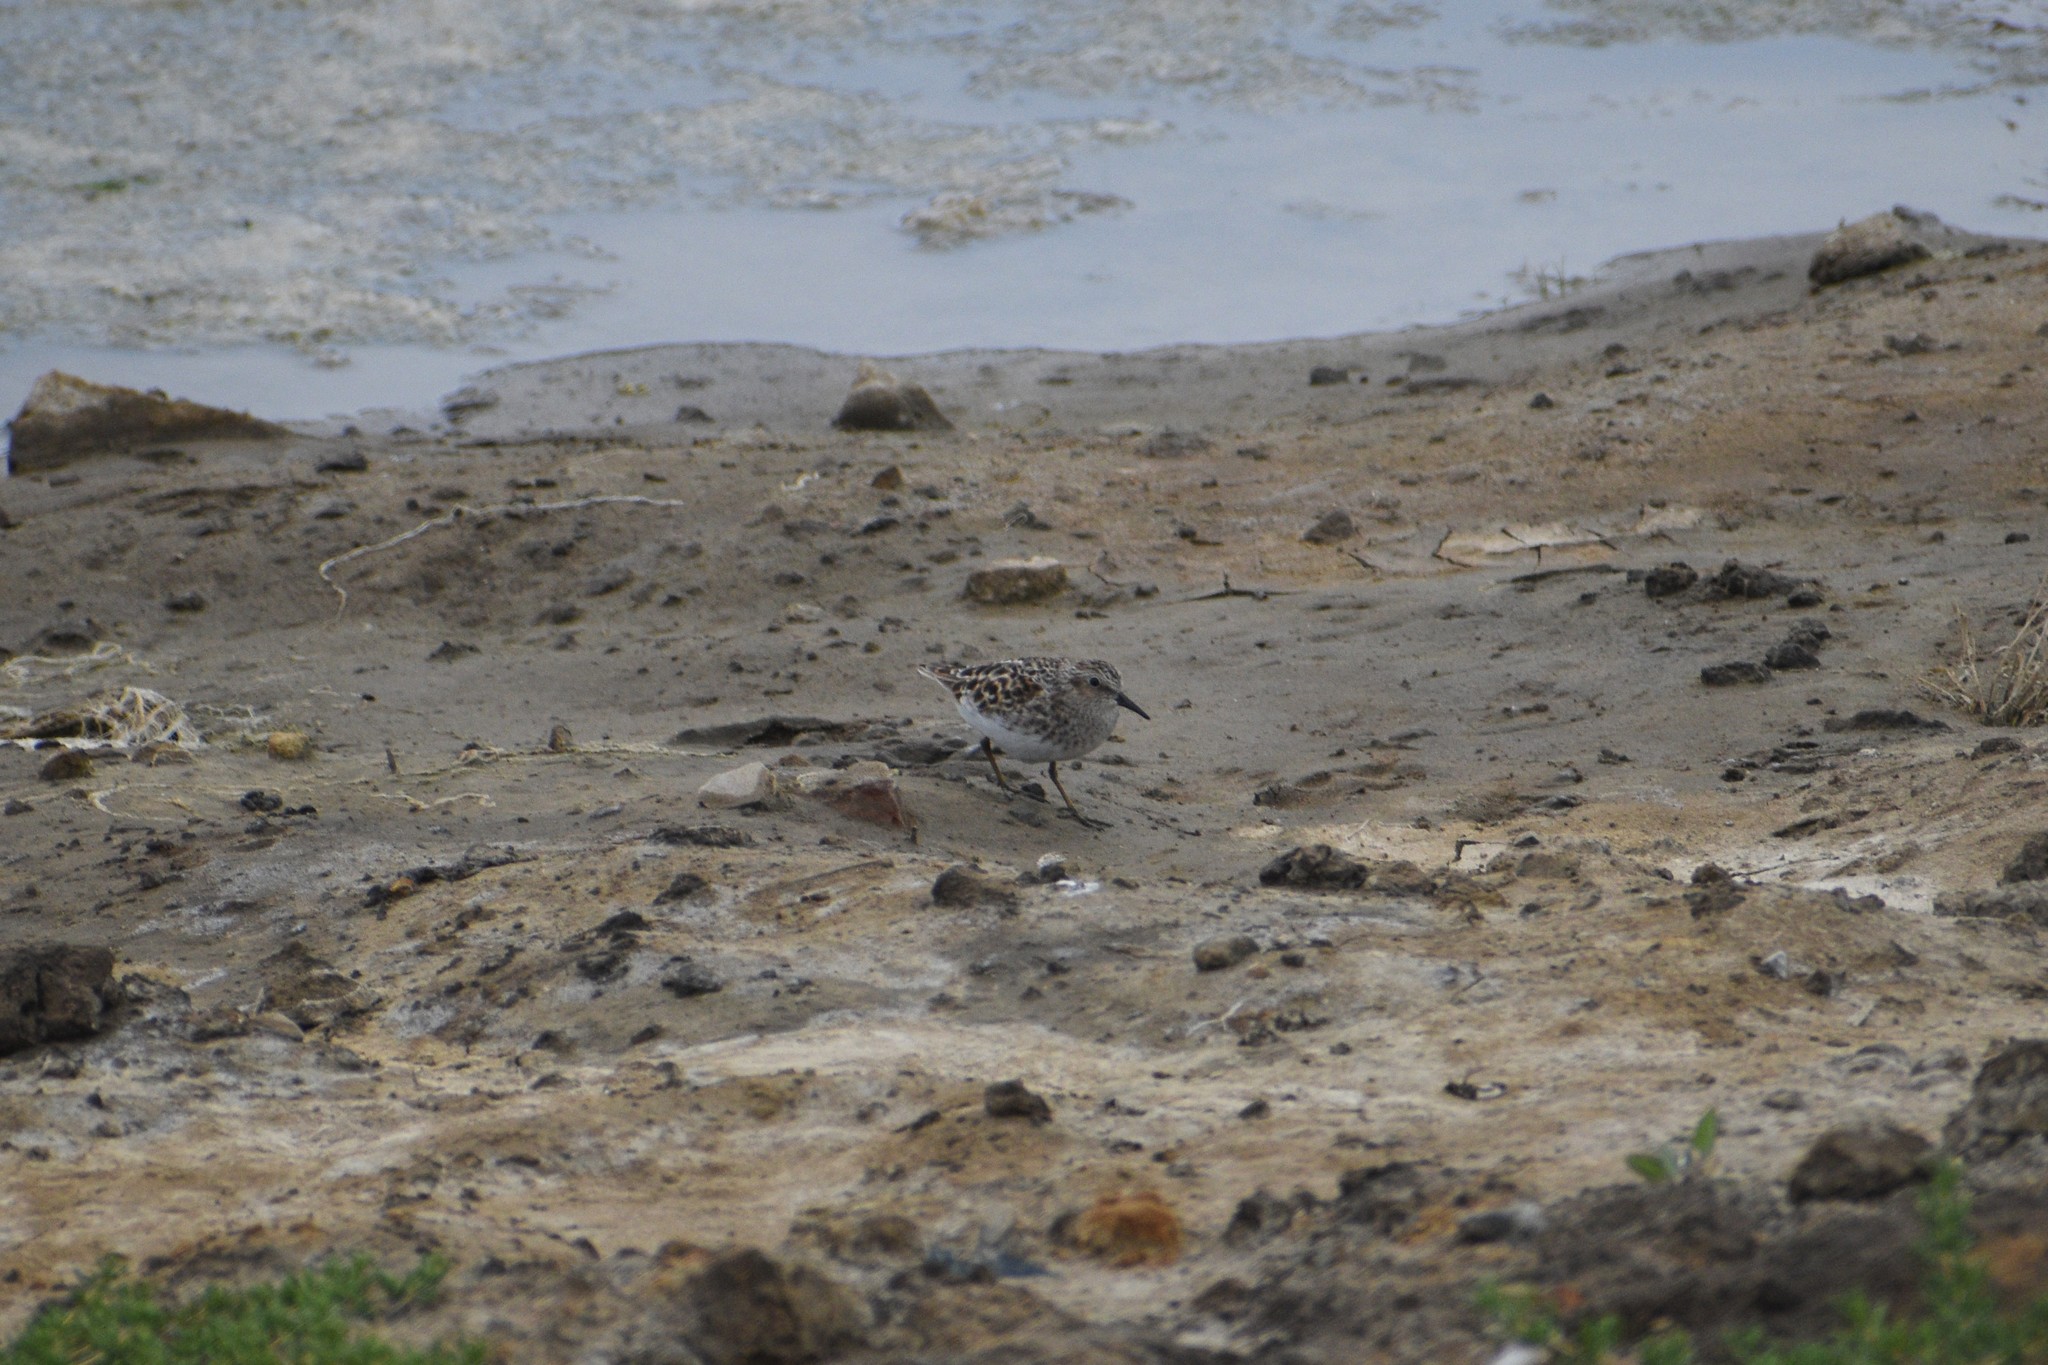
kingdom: Animalia
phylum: Chordata
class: Aves
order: Charadriiformes
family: Scolopacidae
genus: Calidris
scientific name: Calidris minutilla
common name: Least sandpiper
